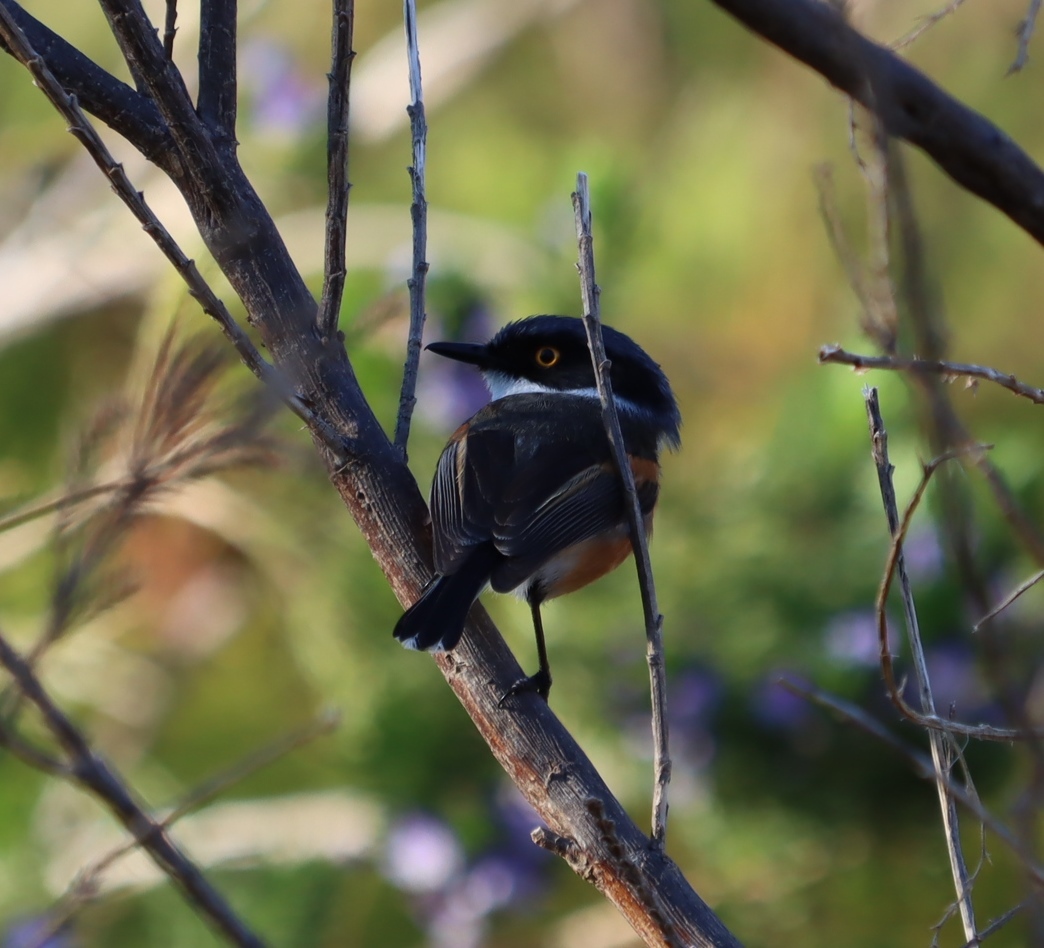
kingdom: Animalia
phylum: Chordata
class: Aves
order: Passeriformes
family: Platysteiridae
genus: Batis
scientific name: Batis capensis
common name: Cape batis
